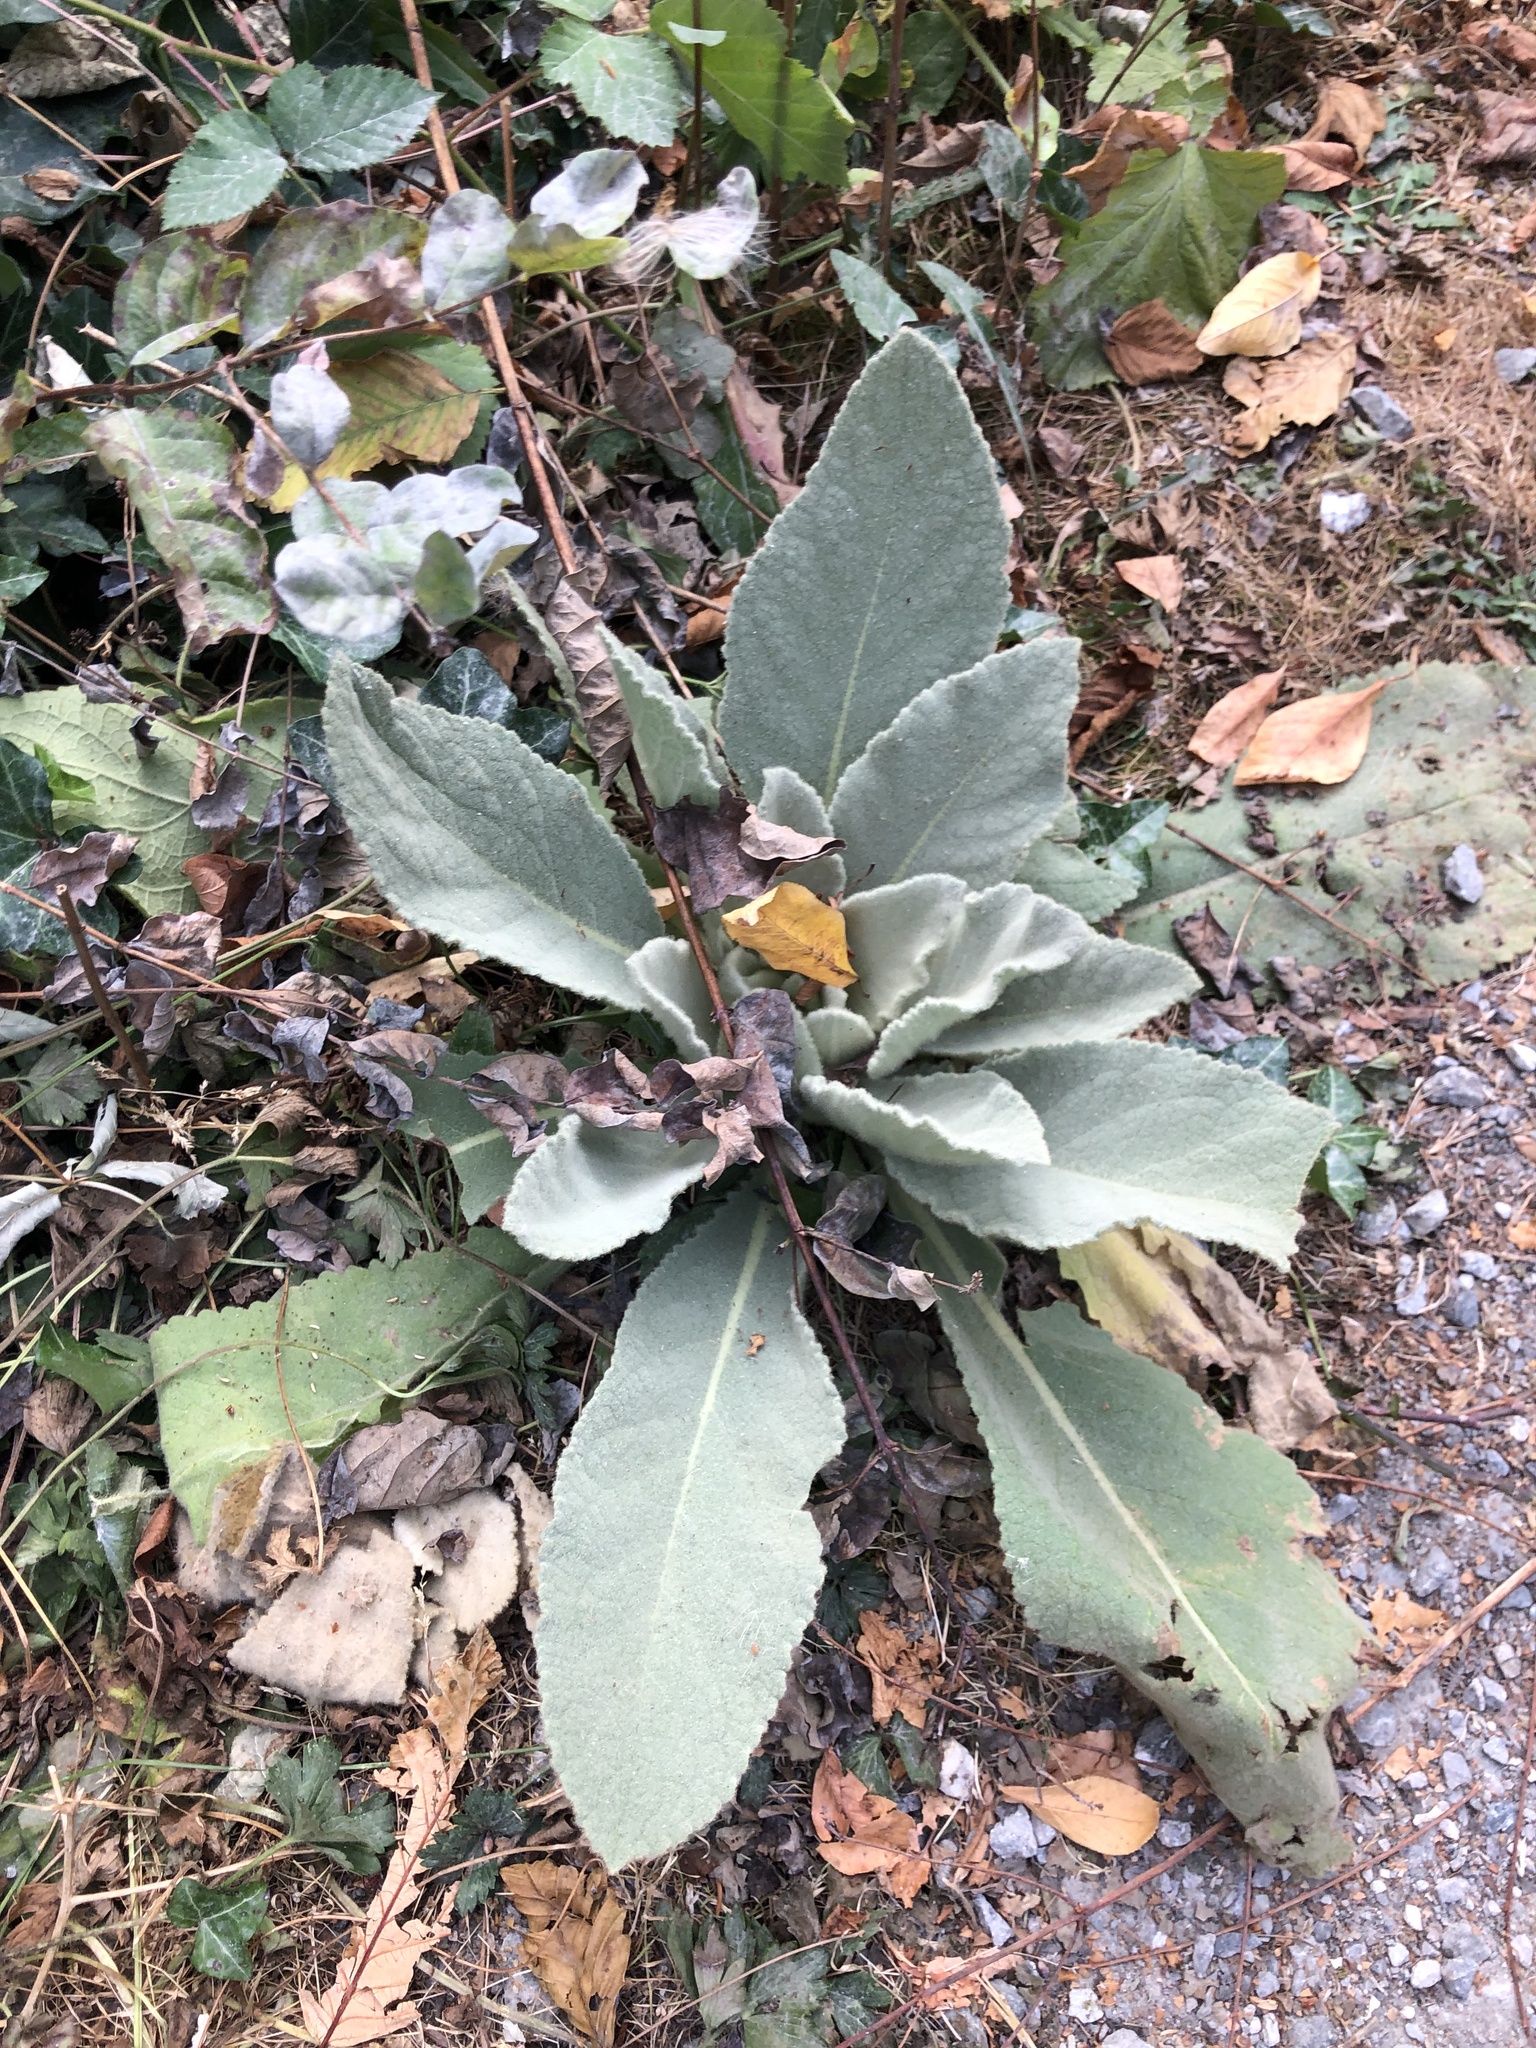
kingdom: Plantae
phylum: Tracheophyta
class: Magnoliopsida
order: Lamiales
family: Scrophulariaceae
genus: Verbascum
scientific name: Verbascum thapsus
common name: Common mullein
